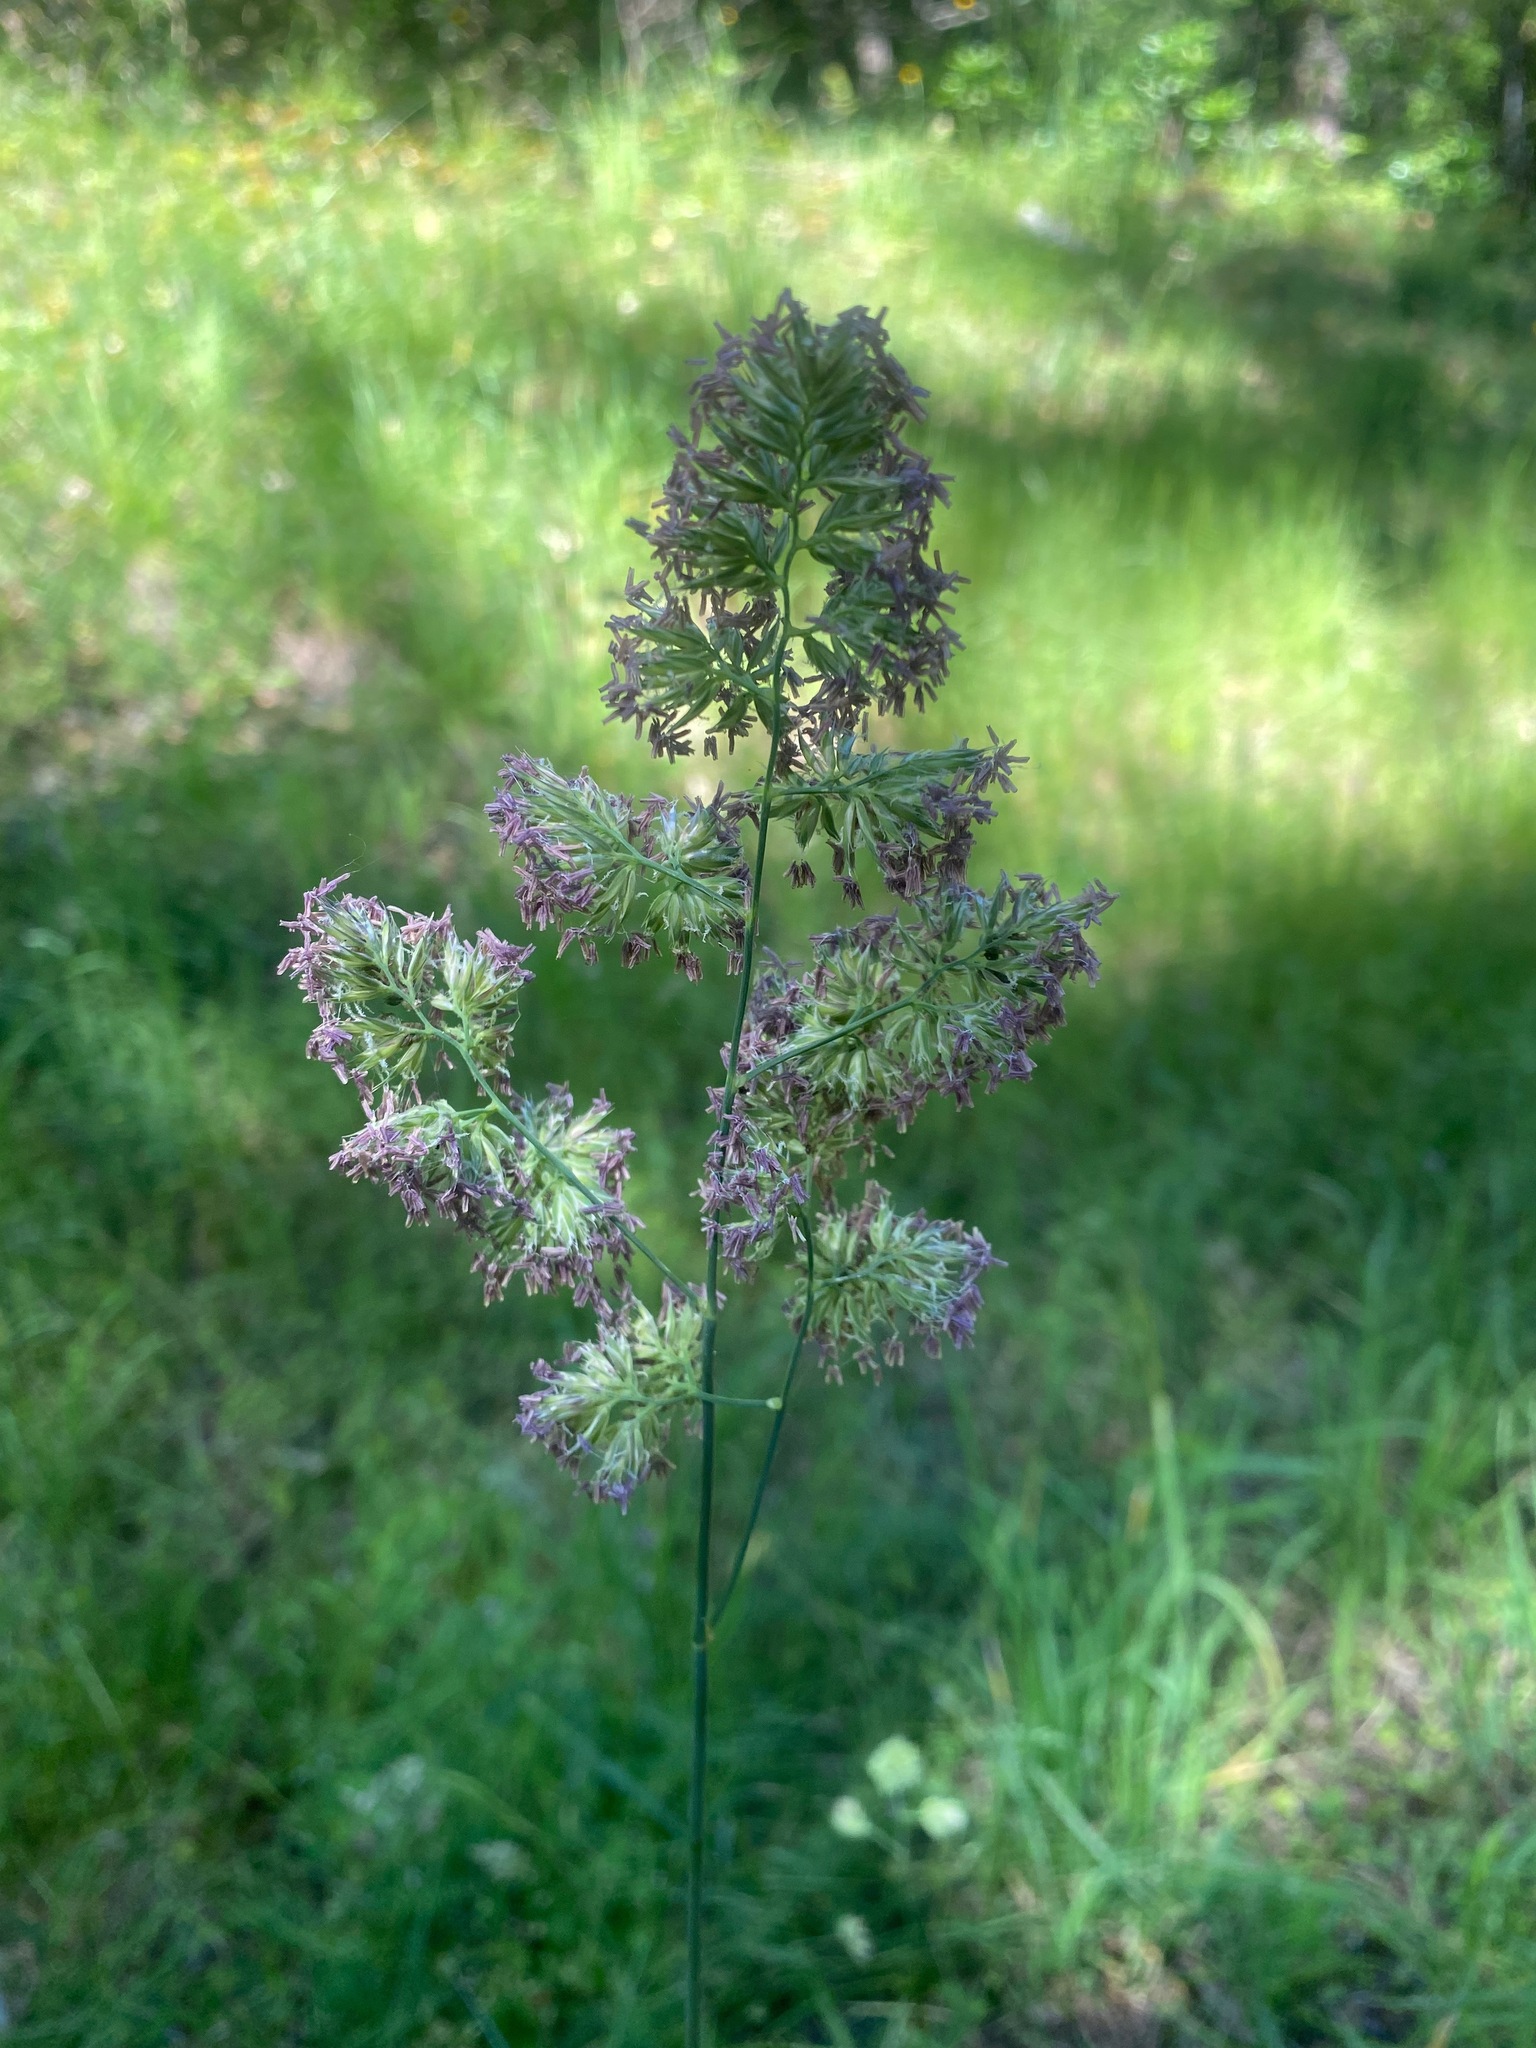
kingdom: Plantae
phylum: Tracheophyta
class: Liliopsida
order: Poales
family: Poaceae
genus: Dactylis
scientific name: Dactylis glomerata
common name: Orchardgrass
